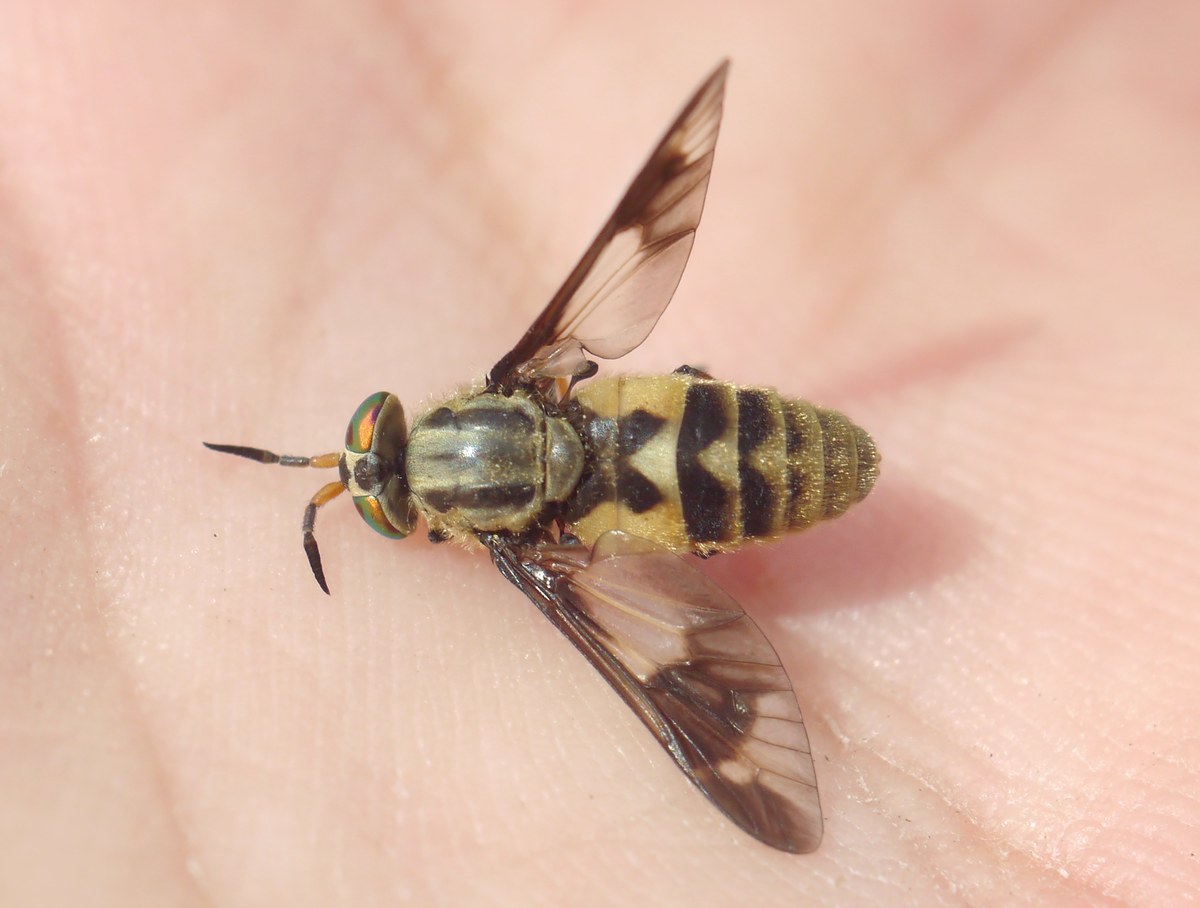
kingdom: Animalia
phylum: Arthropoda
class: Insecta
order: Diptera
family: Tabanidae
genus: Chrysops
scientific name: Chrysops relictus
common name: Twin-lobed deerfly
